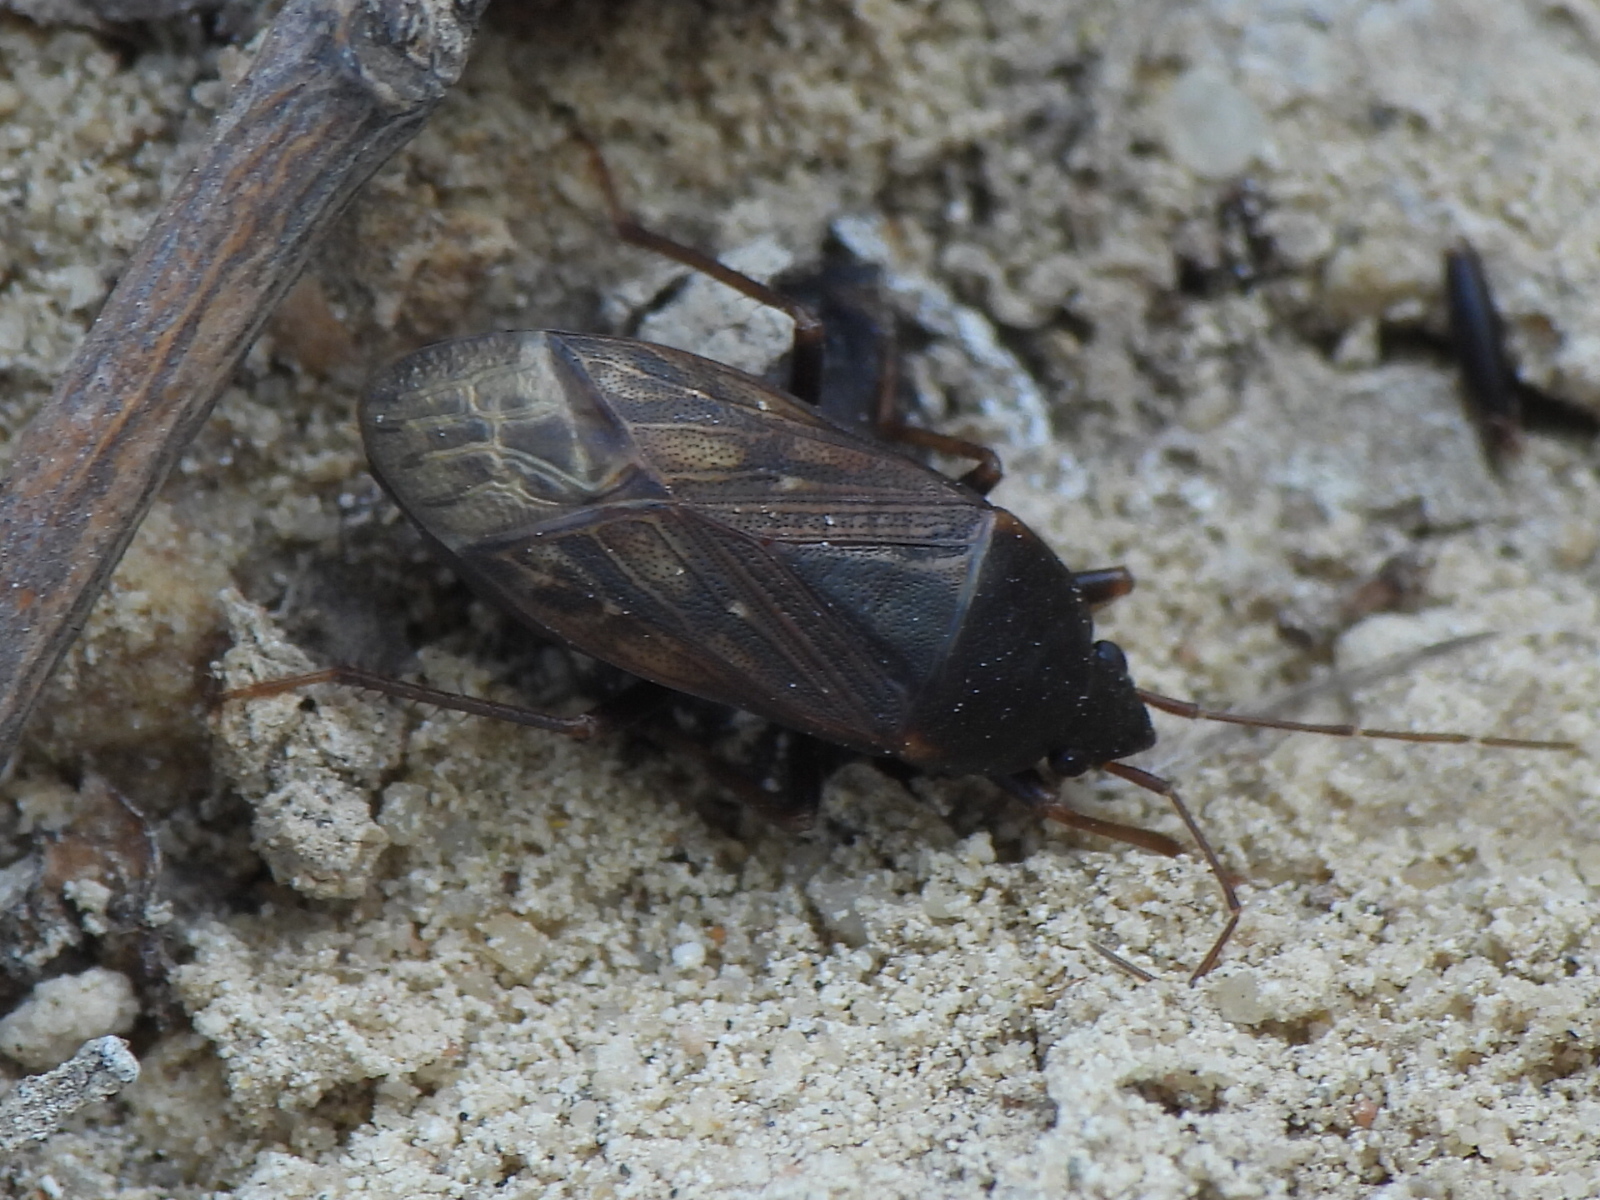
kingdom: Animalia
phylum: Arthropoda
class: Insecta
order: Hemiptera
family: Rhyparochromidae
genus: Lethaeus
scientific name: Lethaeus fulvovarius
